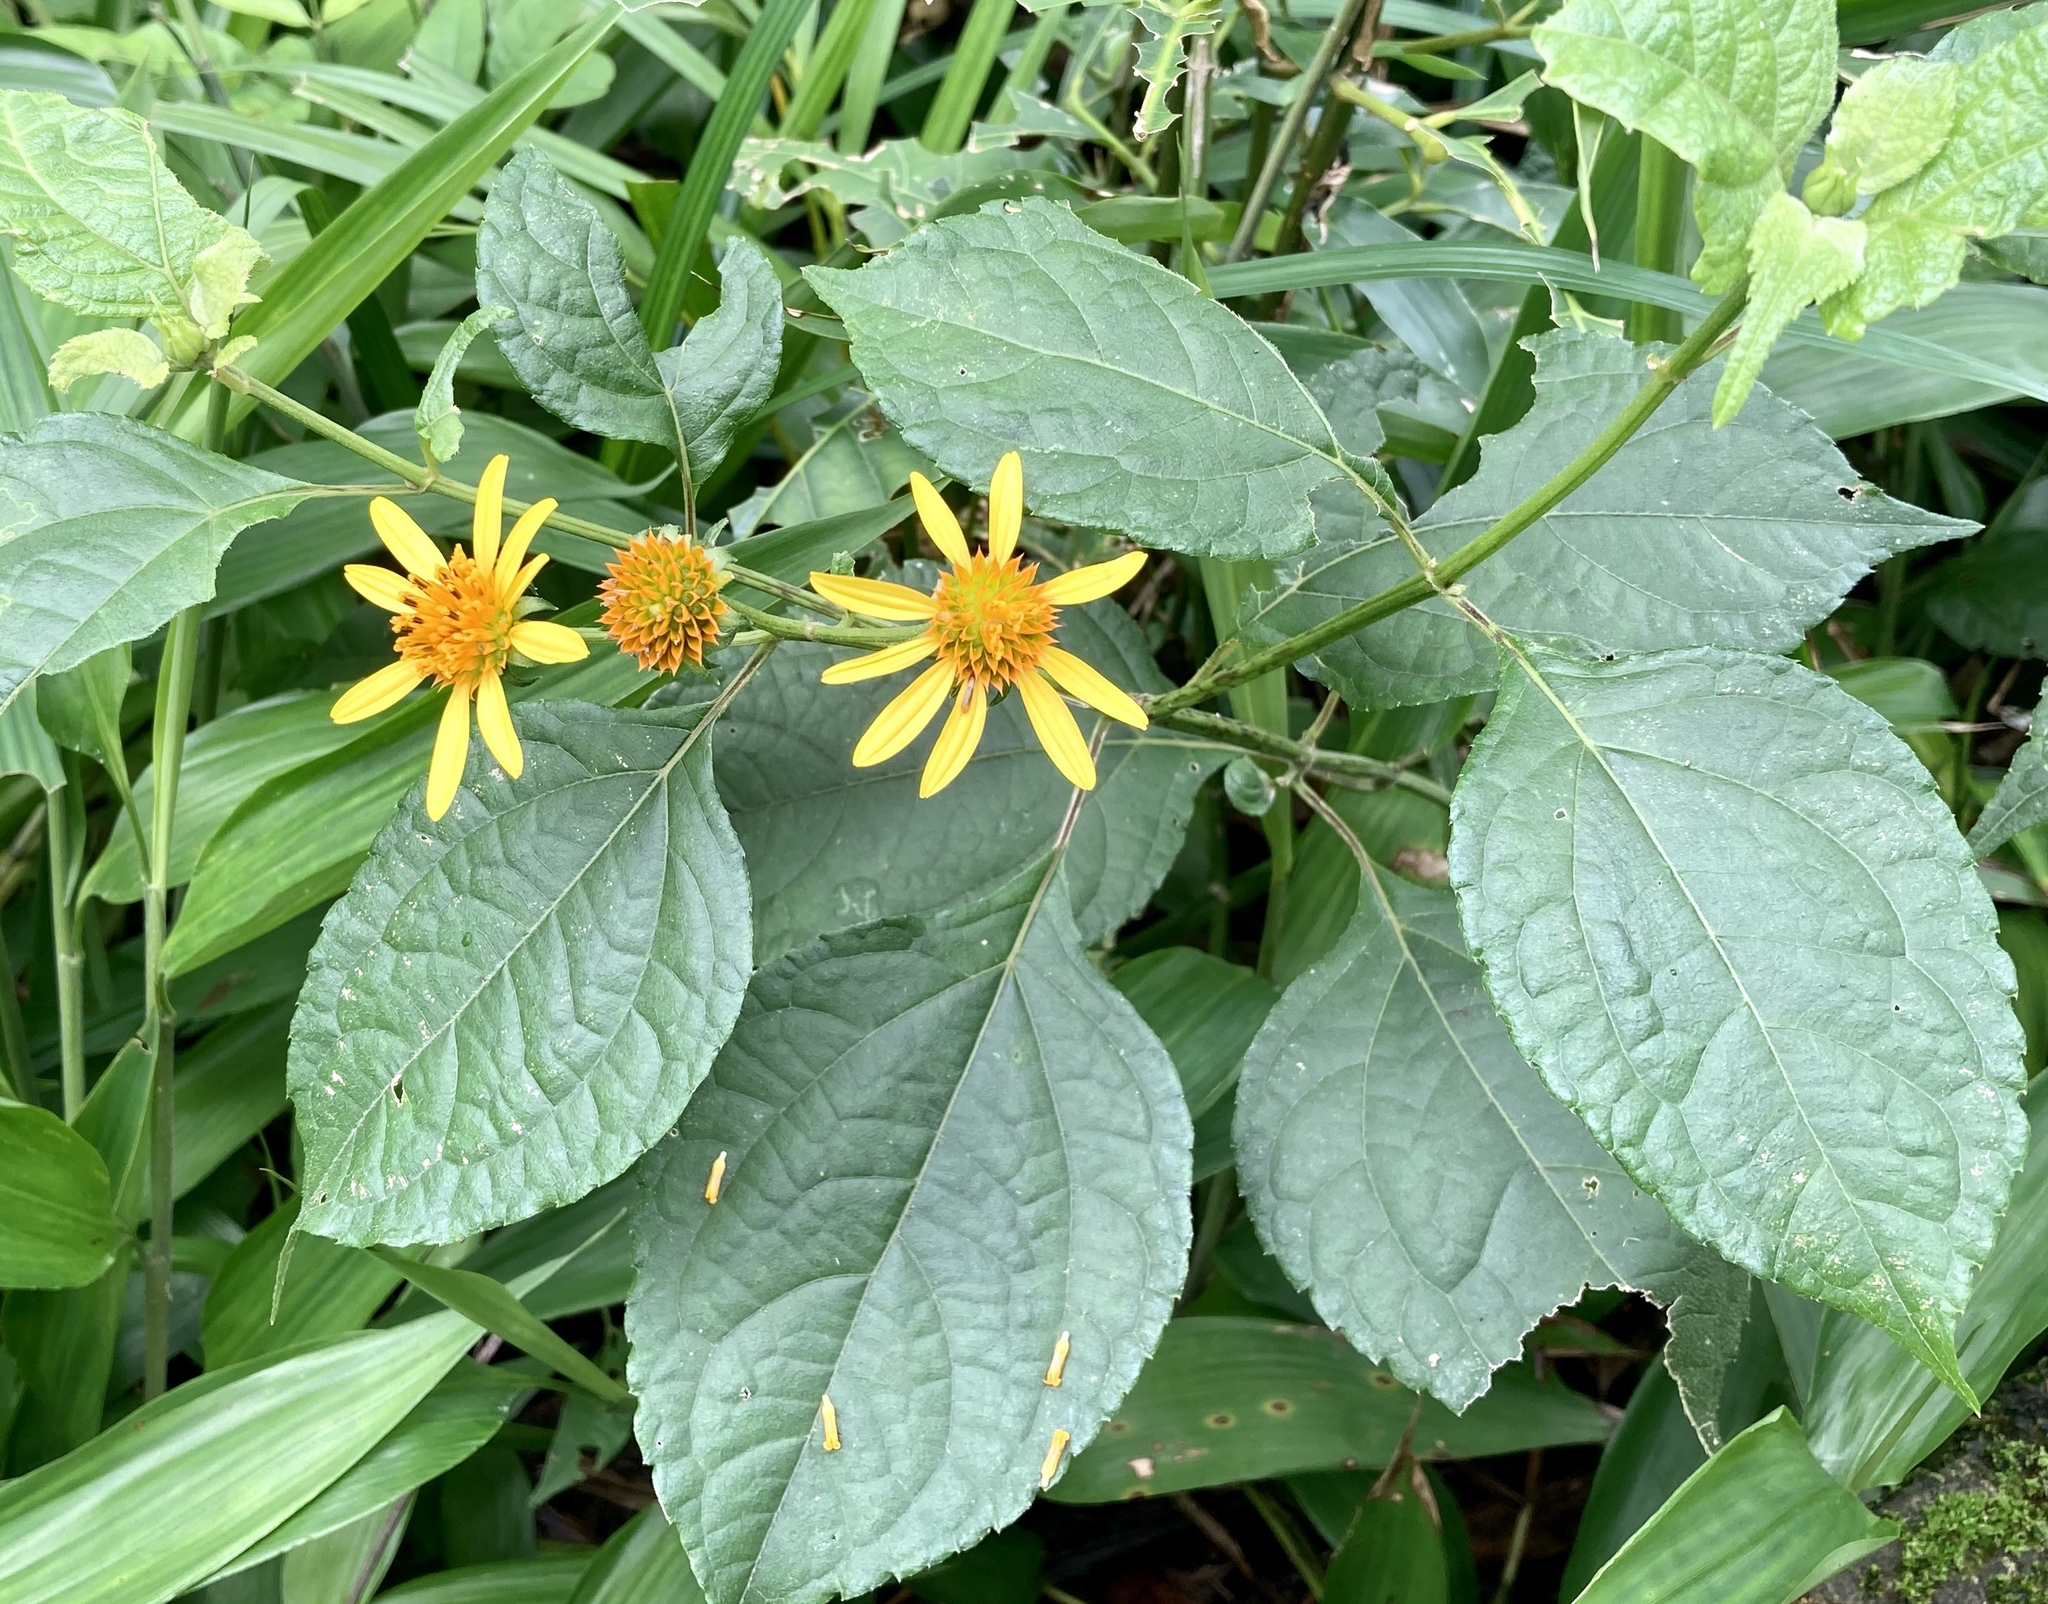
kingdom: Plantae
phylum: Tracheophyta
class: Magnoliopsida
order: Asterales
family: Asteraceae
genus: Tilesia
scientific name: Tilesia baccata
